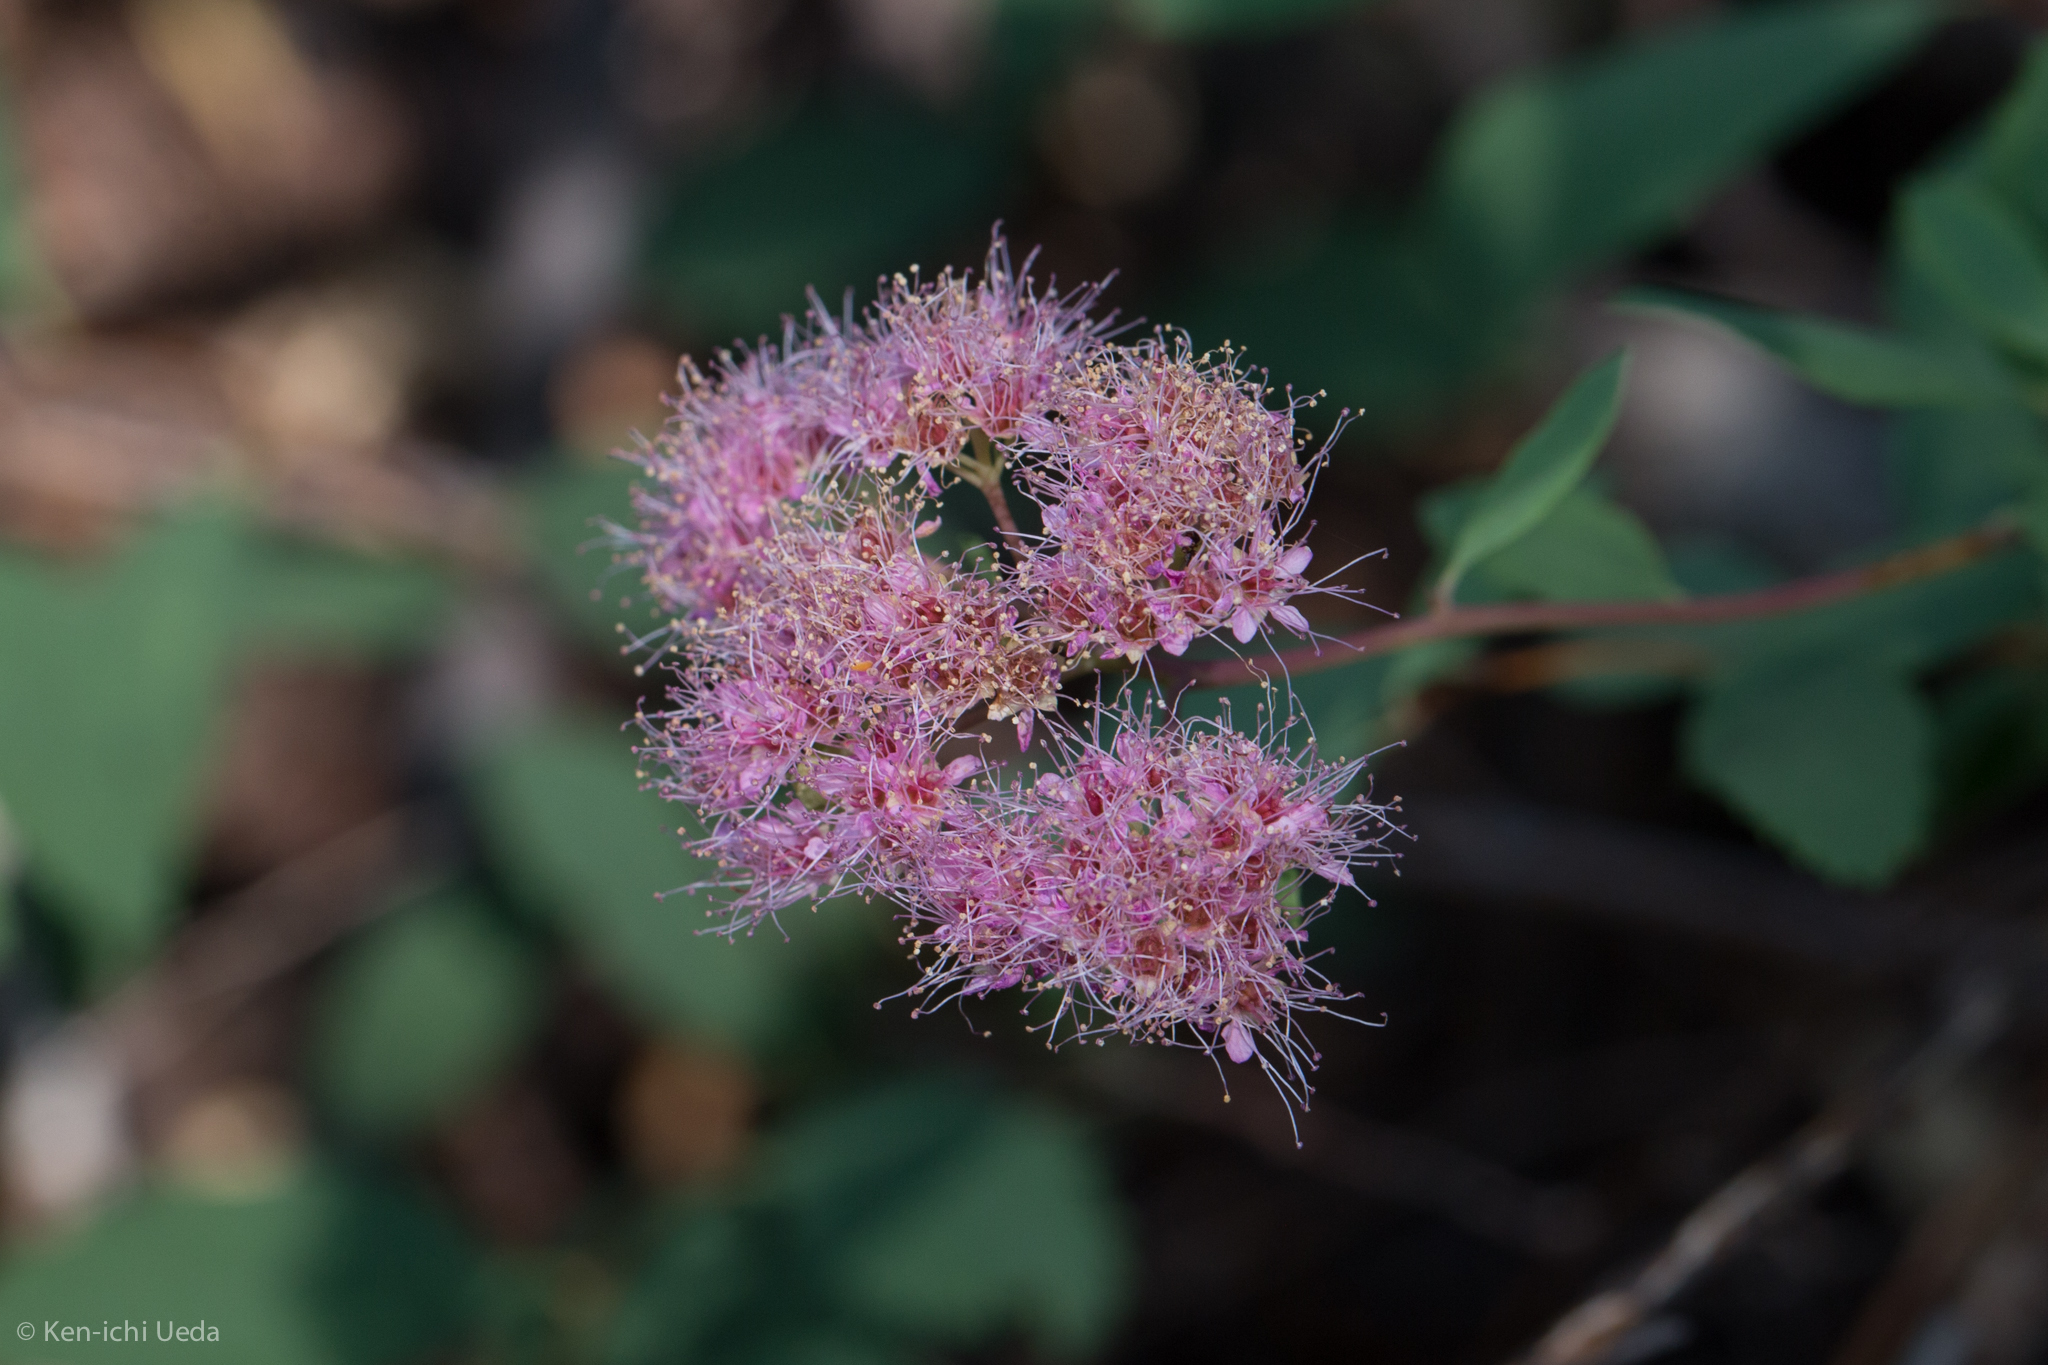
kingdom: Plantae
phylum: Tracheophyta
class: Magnoliopsida
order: Rosales
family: Rosaceae
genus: Spiraea
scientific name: Spiraea splendens
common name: Subalpine meadowsweet
